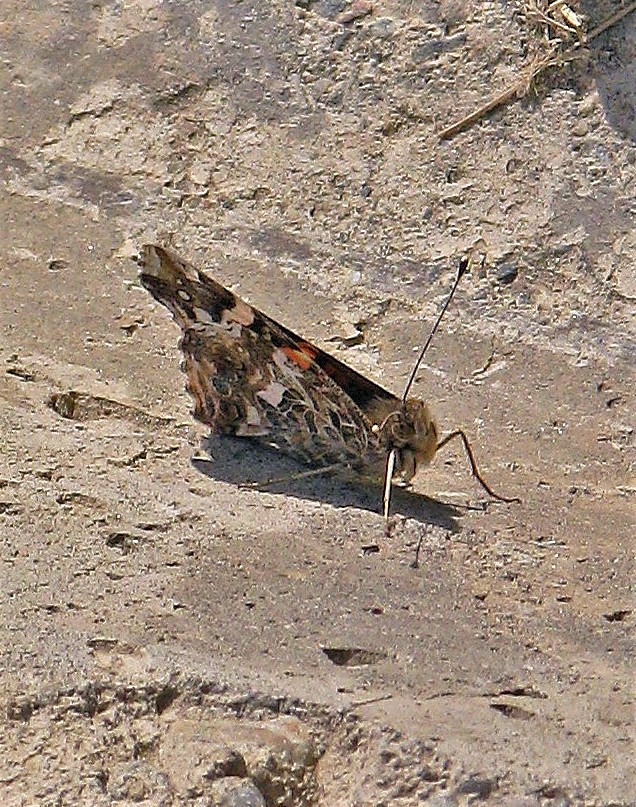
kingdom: Animalia
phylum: Arthropoda
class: Insecta
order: Lepidoptera
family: Nymphalidae
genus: Vanessa
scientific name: Vanessa carye
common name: Subtropical lady
